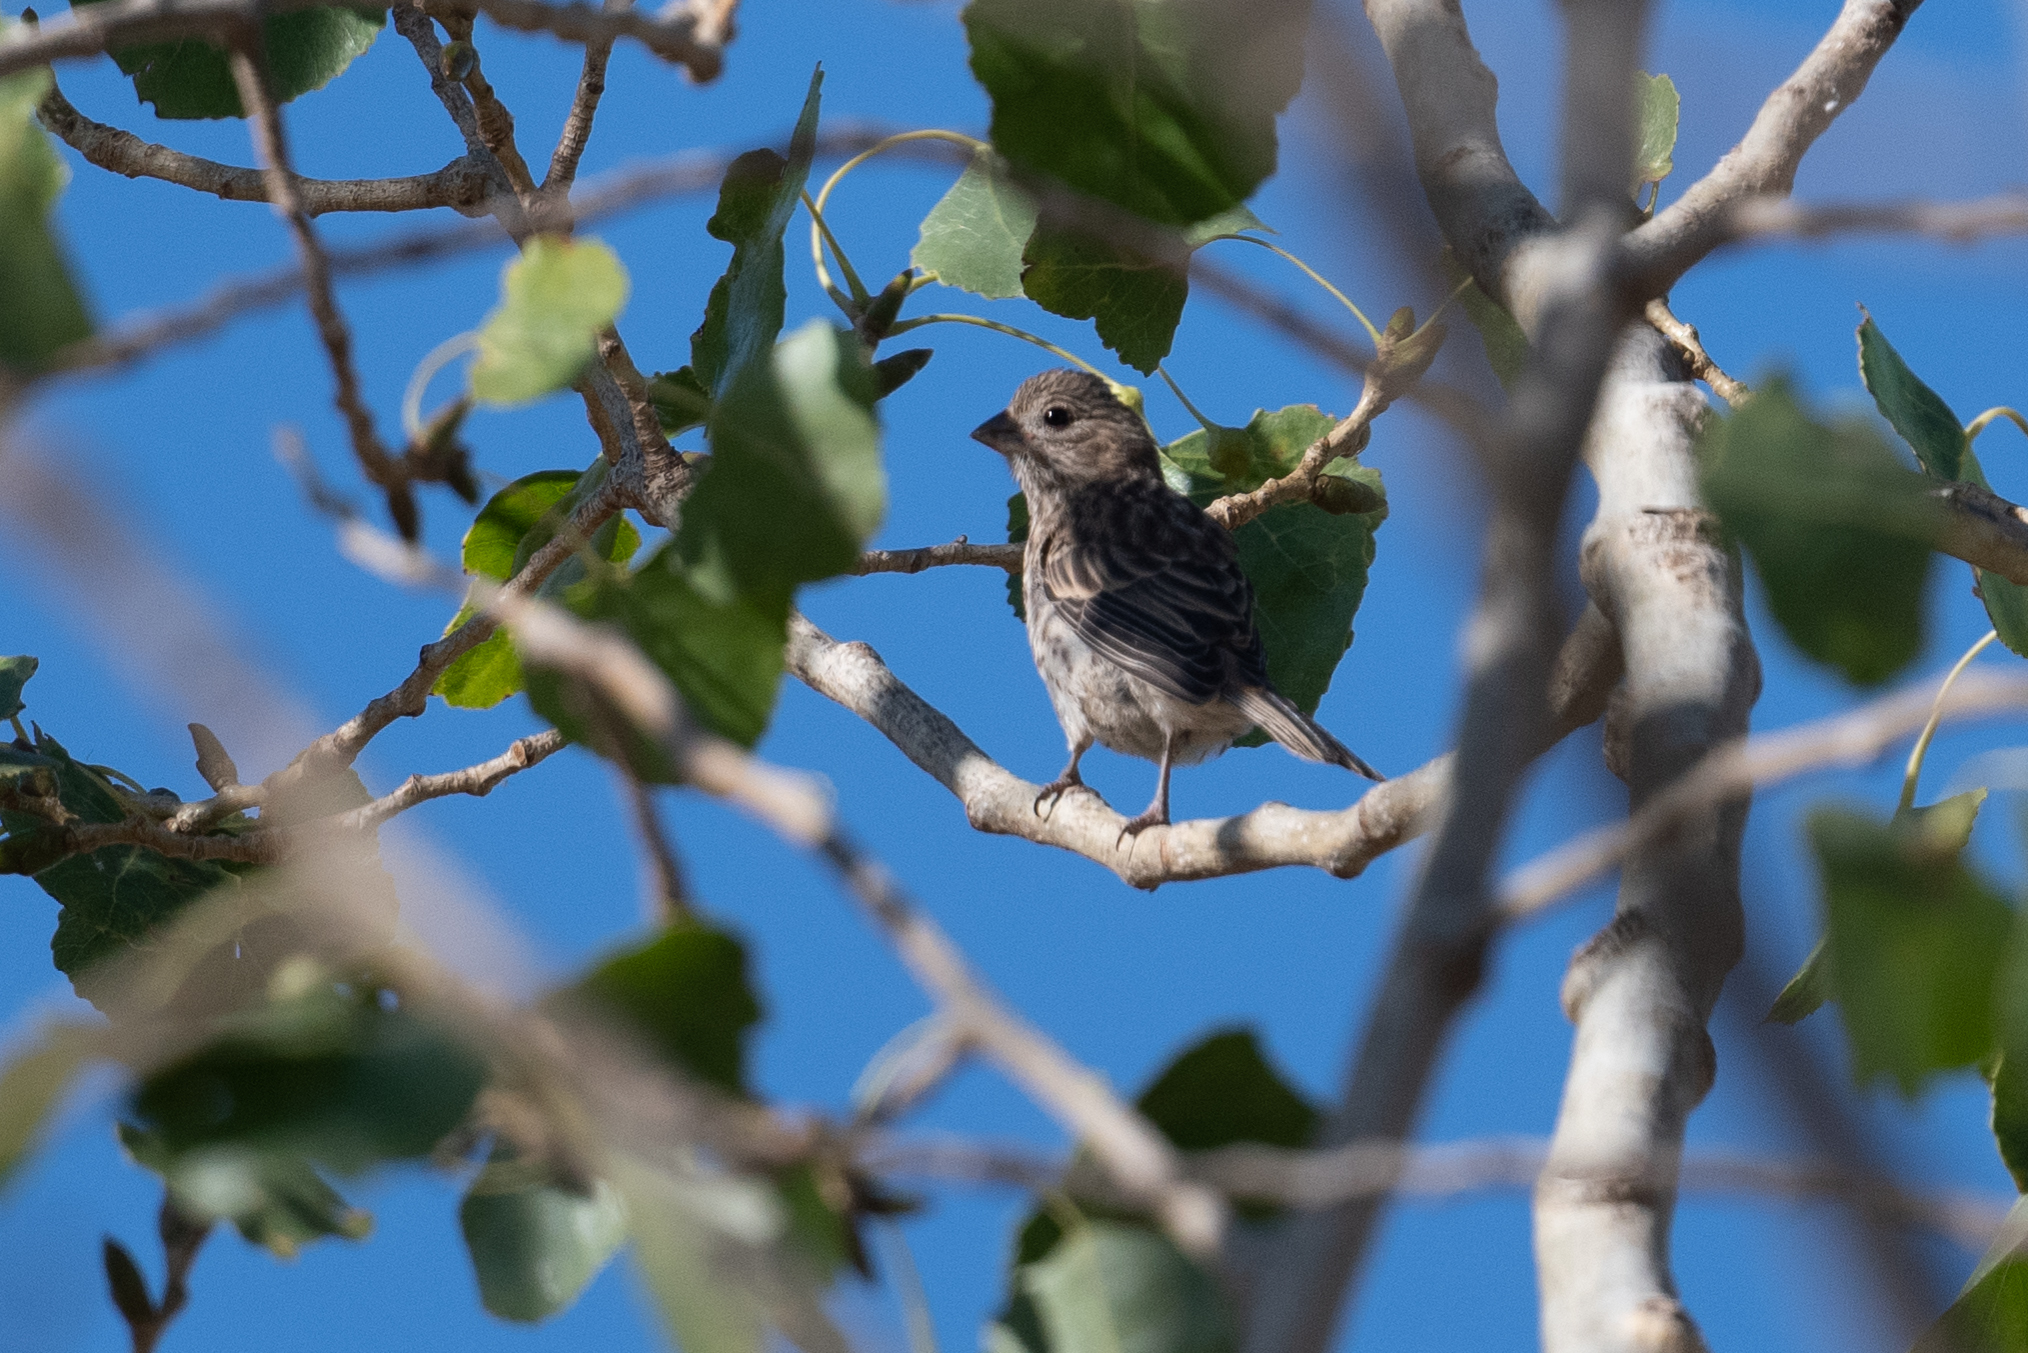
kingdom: Animalia
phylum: Chordata
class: Aves
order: Passeriformes
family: Fringillidae
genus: Haemorhous
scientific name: Haemorhous mexicanus
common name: House finch
